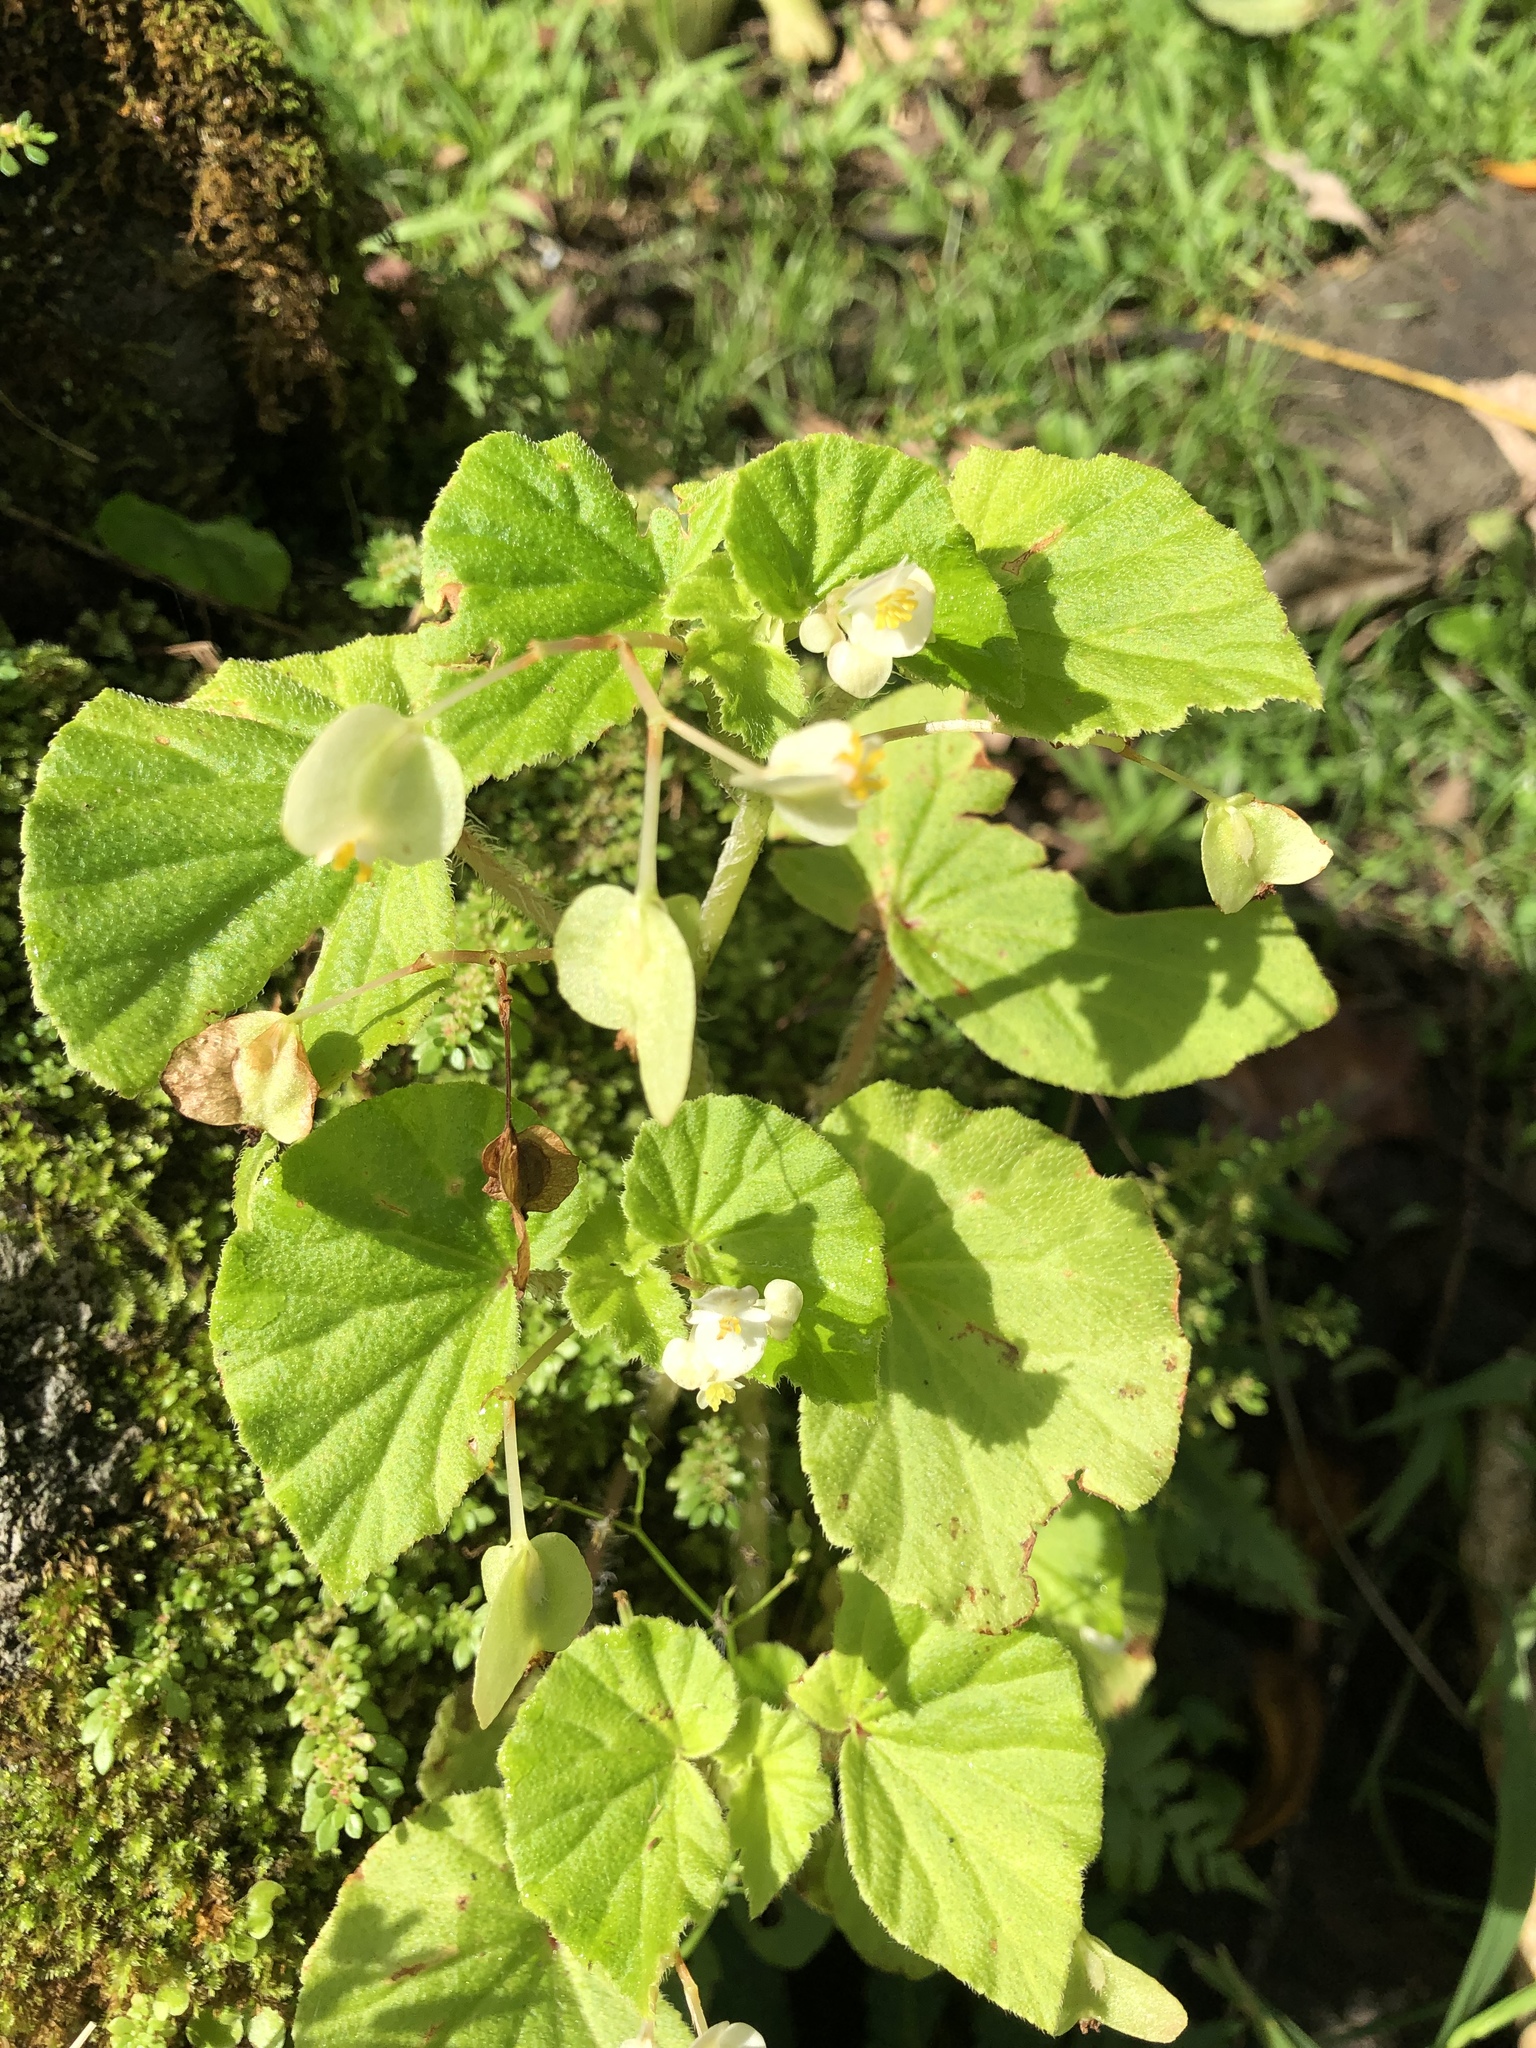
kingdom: Plantae
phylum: Tracheophyta
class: Magnoliopsida
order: Cucurbitales
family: Begoniaceae
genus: Begonia
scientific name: Begonia hirtella
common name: Brazilian begonia
